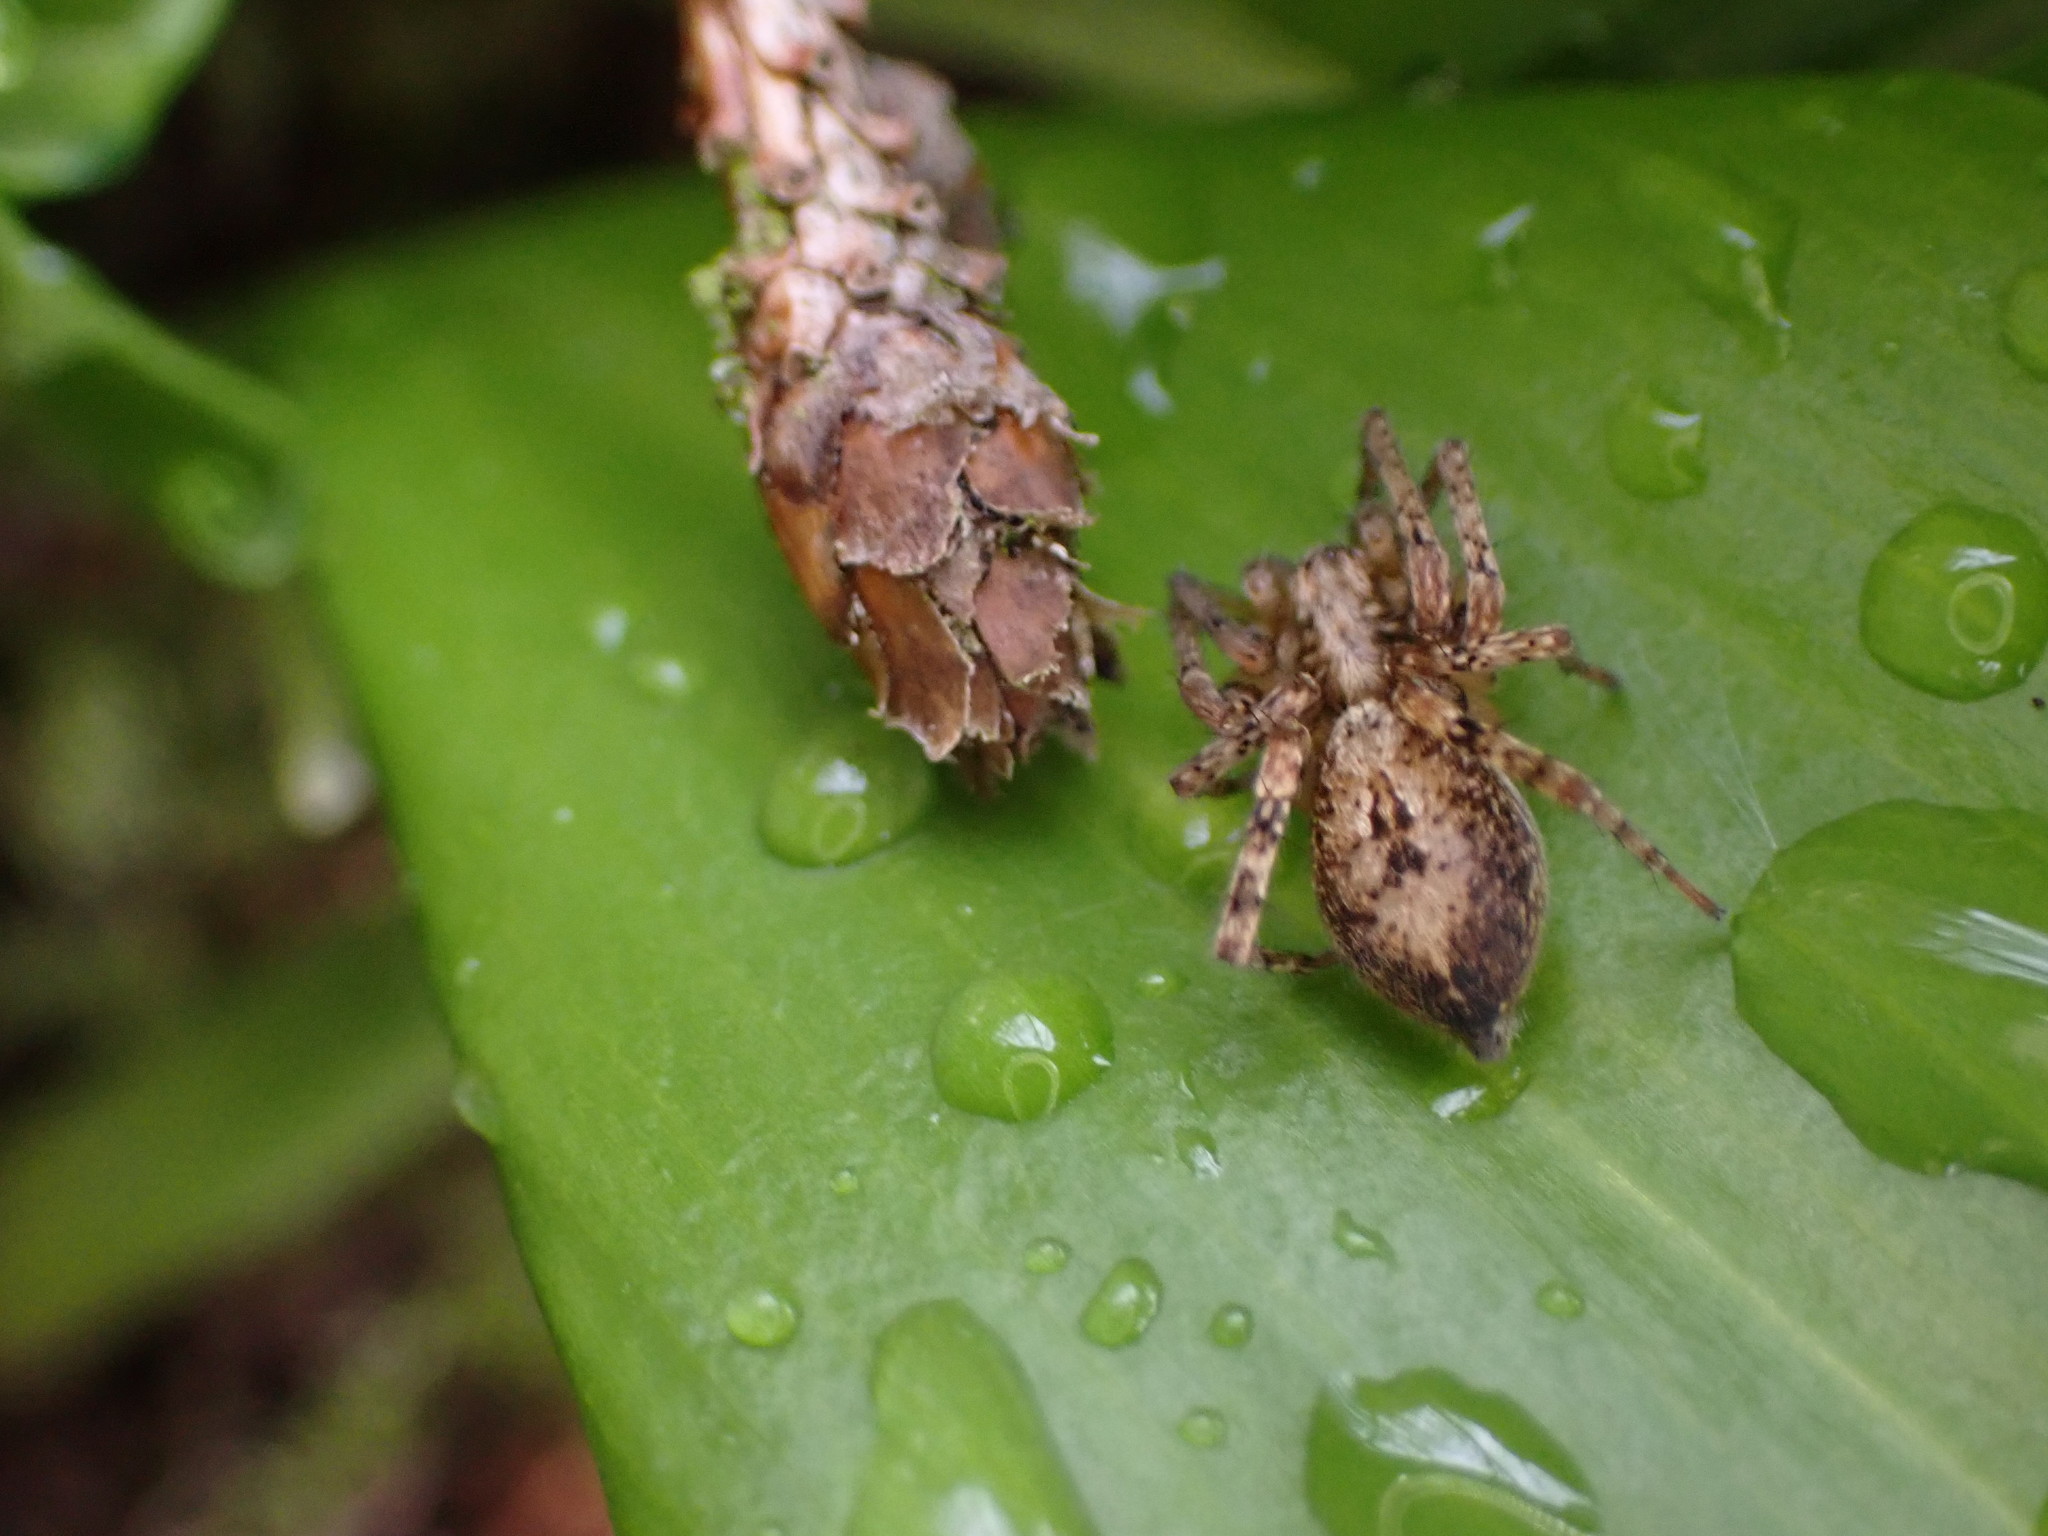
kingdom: Animalia
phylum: Arthropoda
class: Arachnida
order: Araneae
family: Anyphaenidae
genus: Anyphaena
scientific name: Anyphaena accentuata
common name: Buzzing spider
